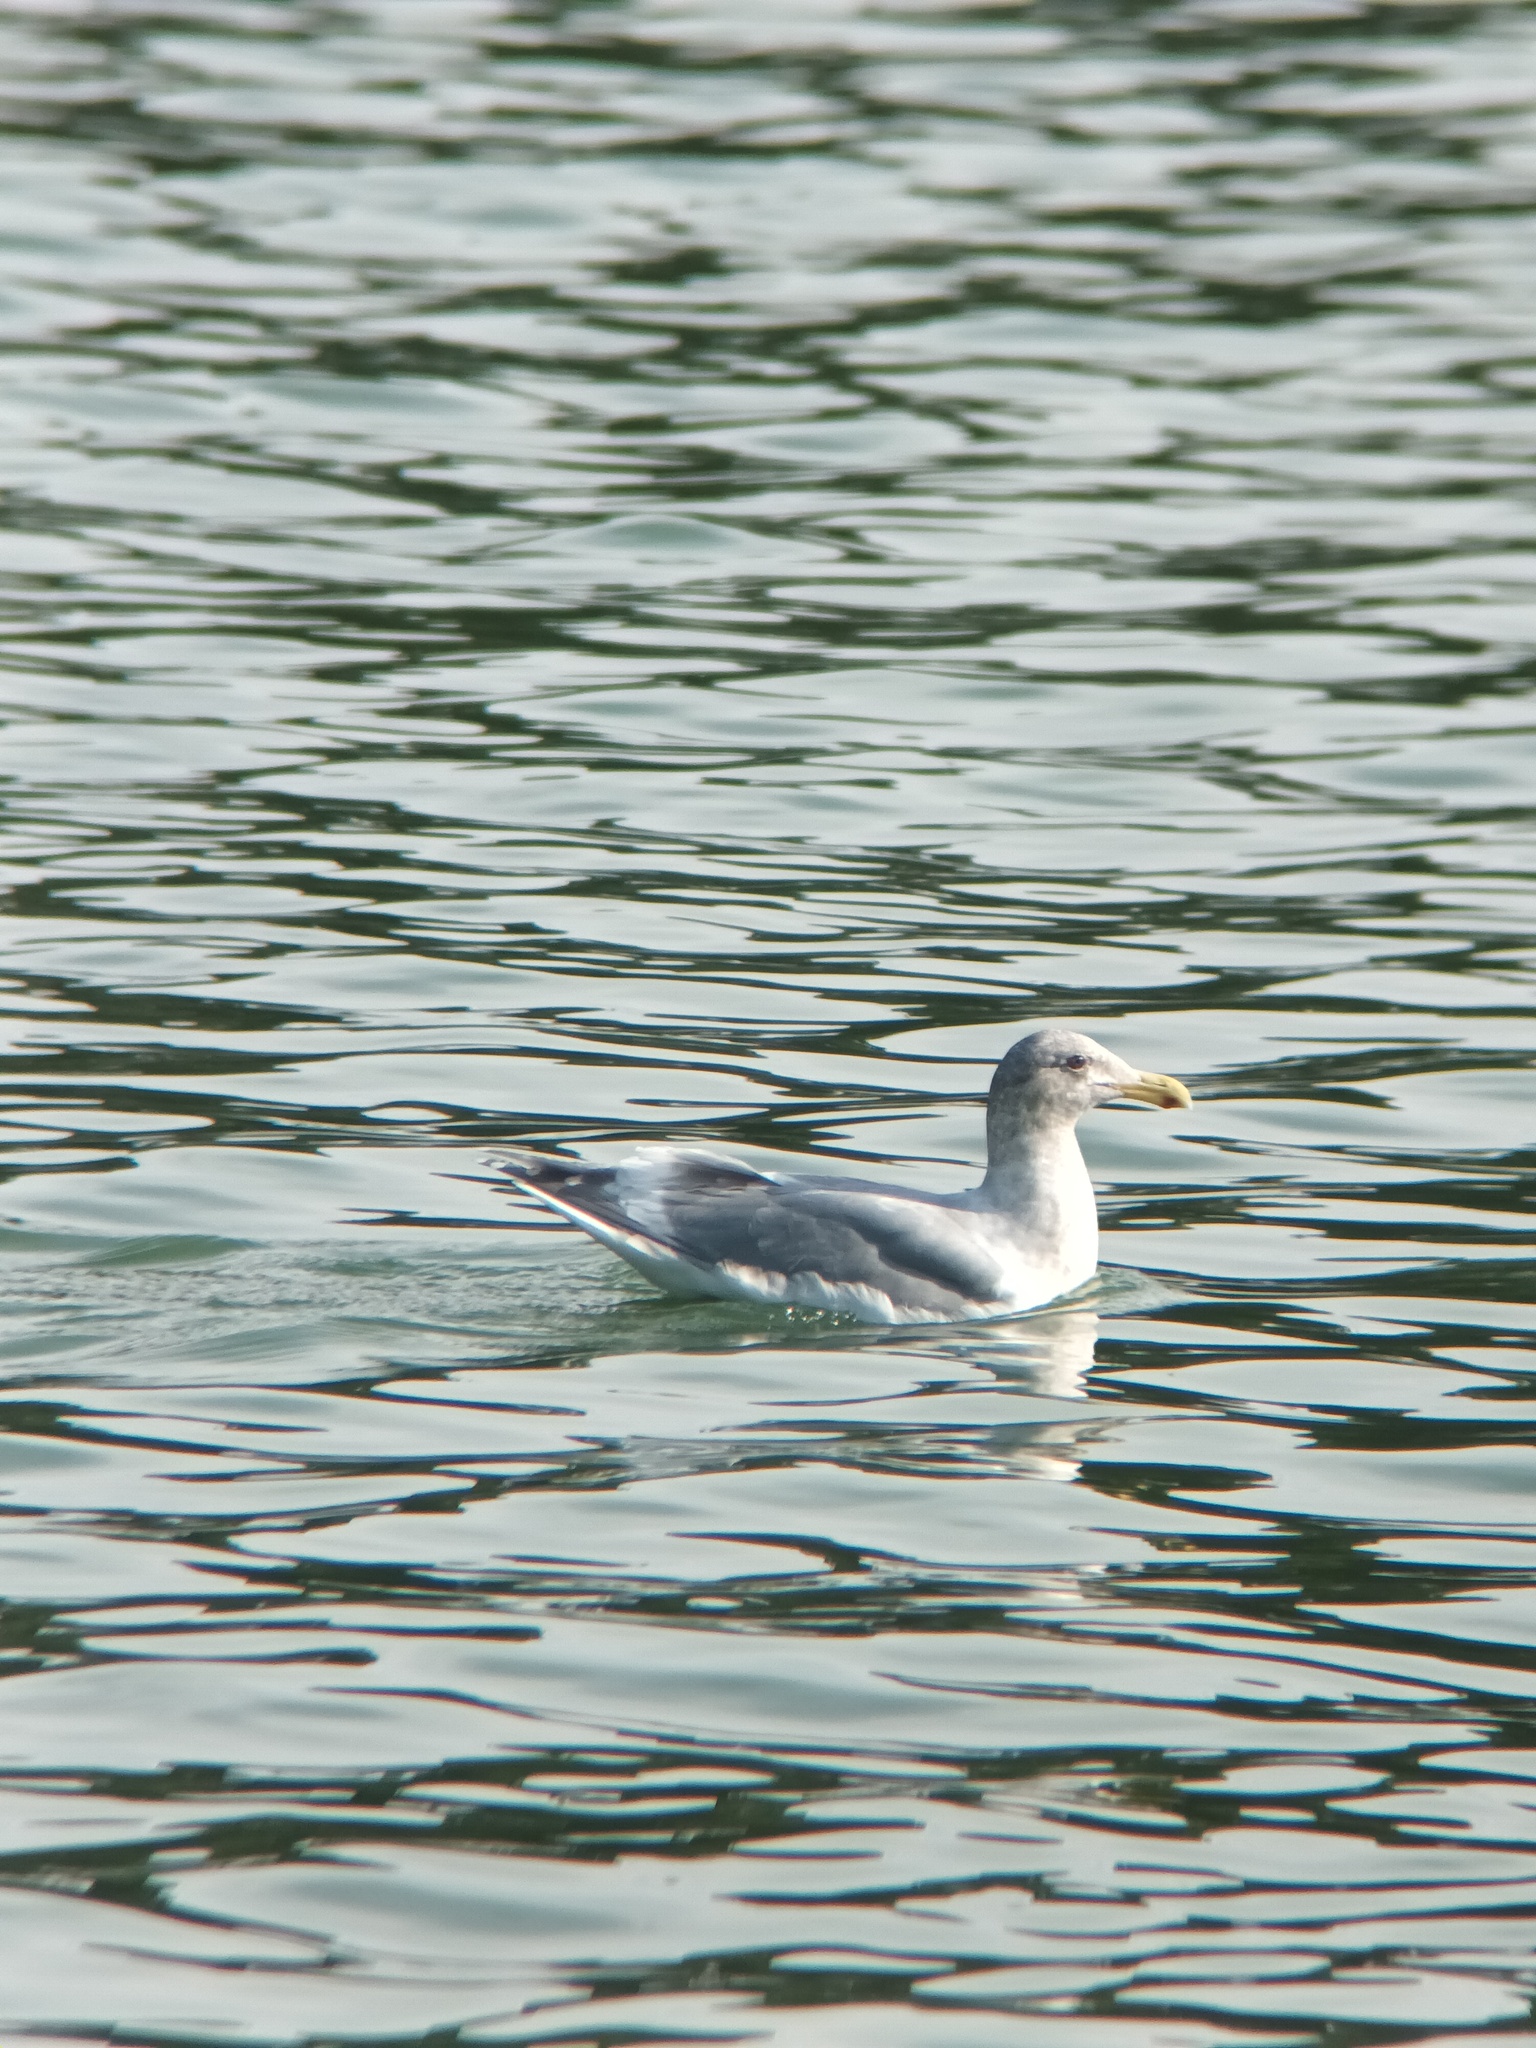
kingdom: Animalia
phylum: Chordata
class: Aves
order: Charadriiformes
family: Laridae
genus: Larus
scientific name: Larus
